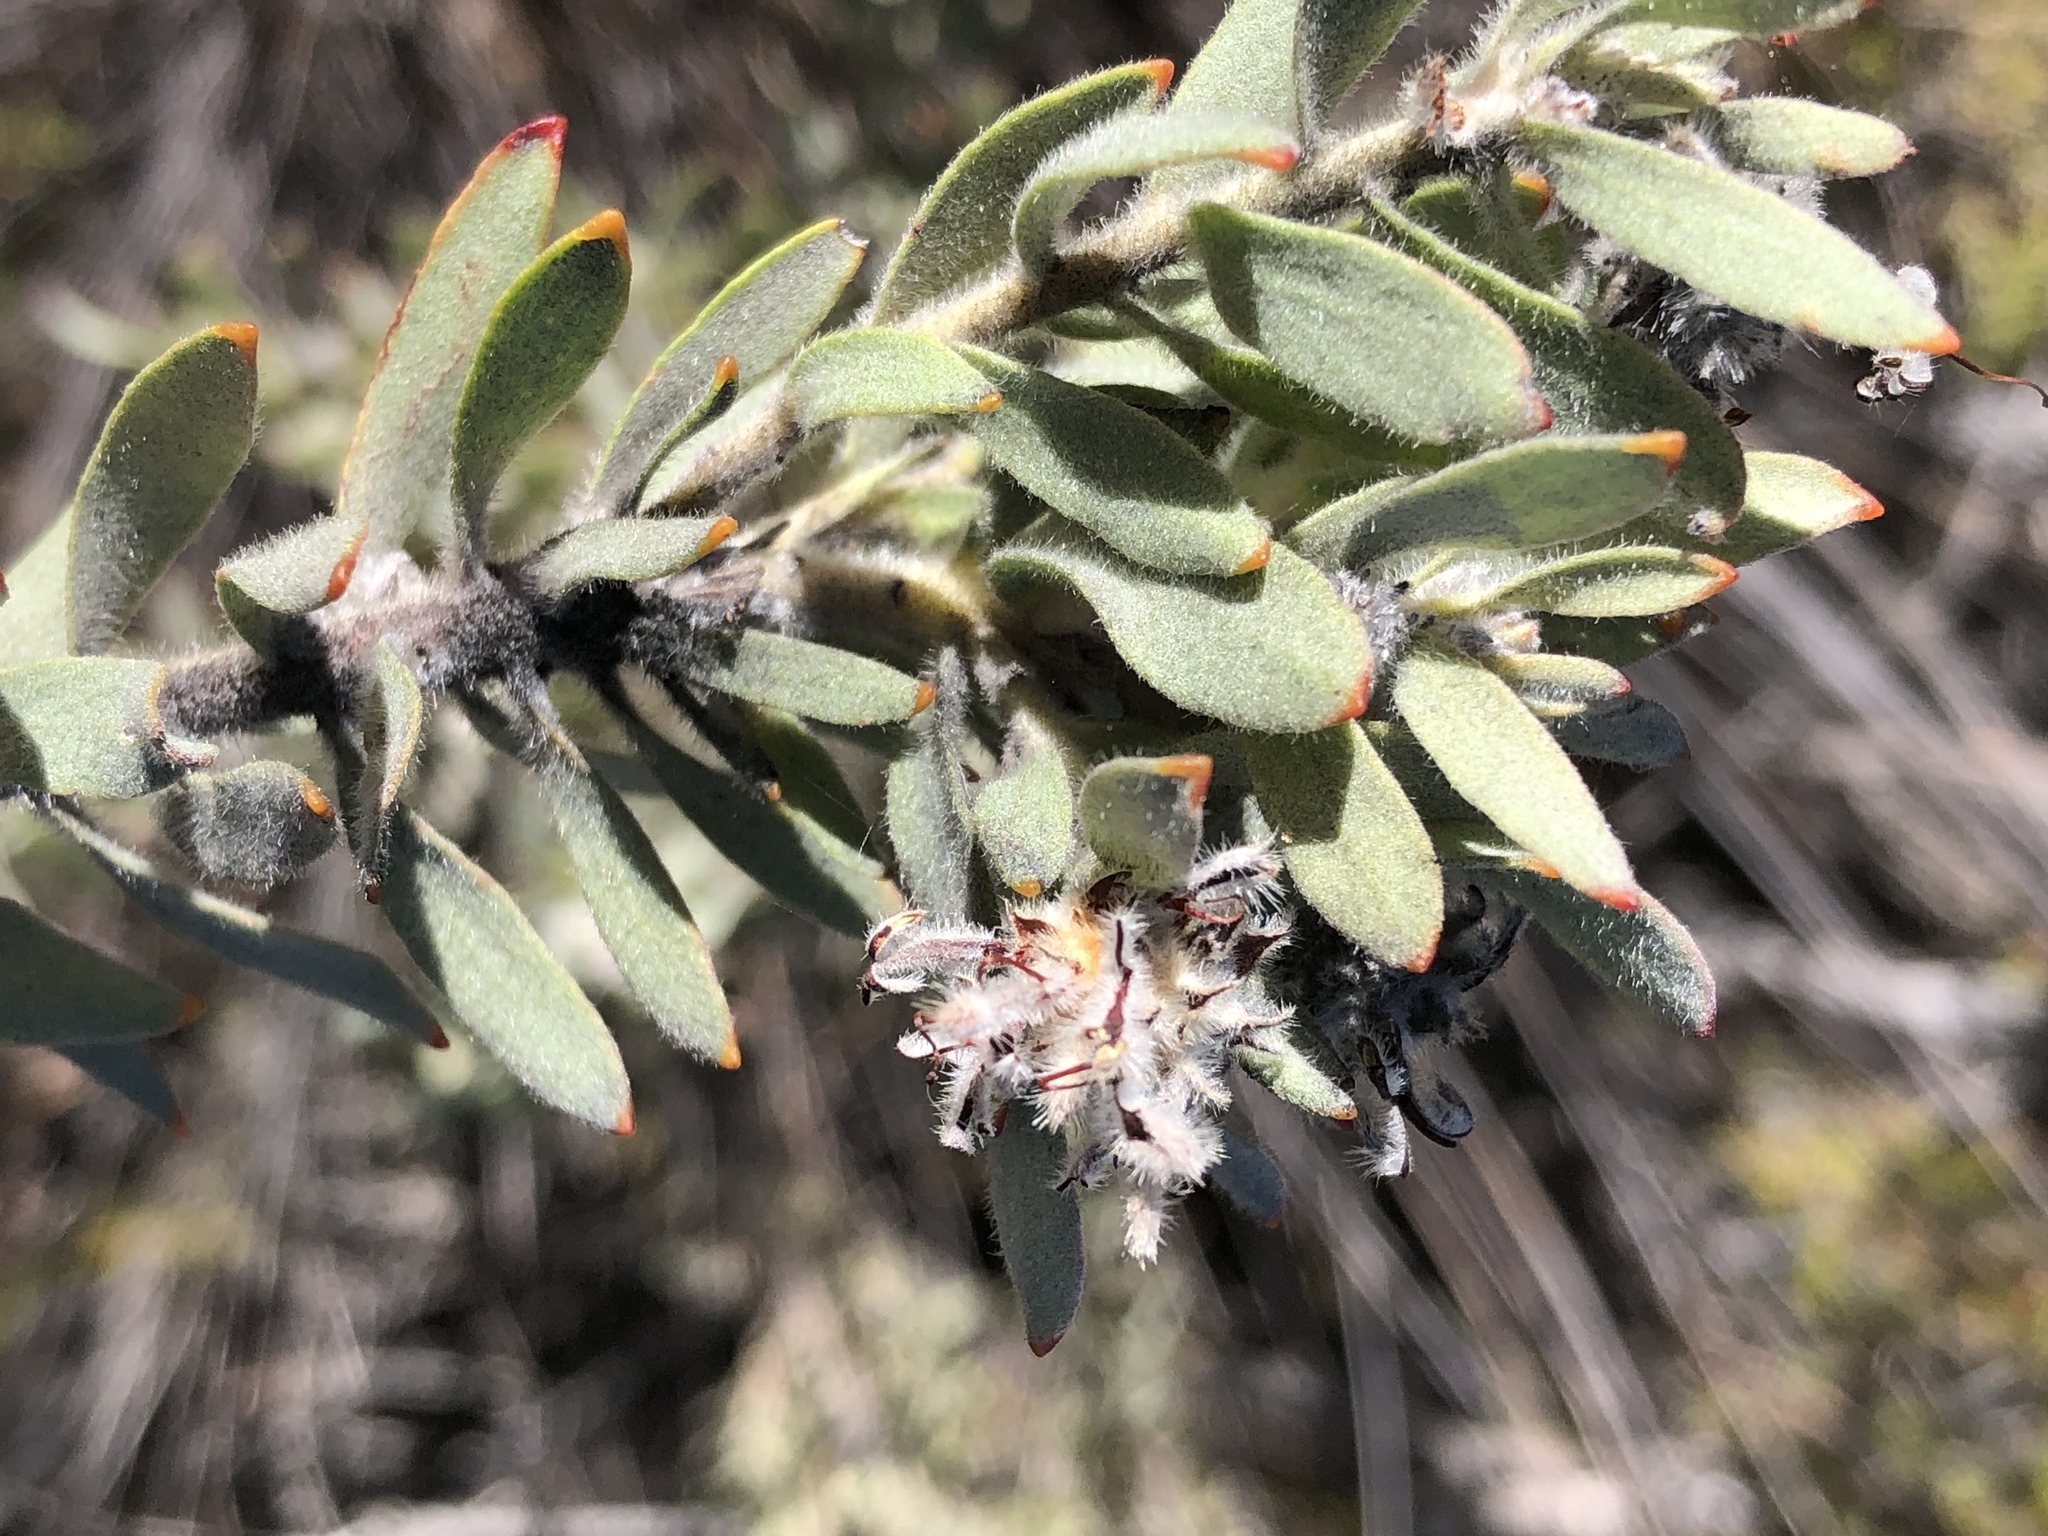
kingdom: Plantae
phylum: Tracheophyta
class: Magnoliopsida
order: Proteales
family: Proteaceae
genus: Leucospermum
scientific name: Leucospermum wittebergense
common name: Swartberg pincushion
